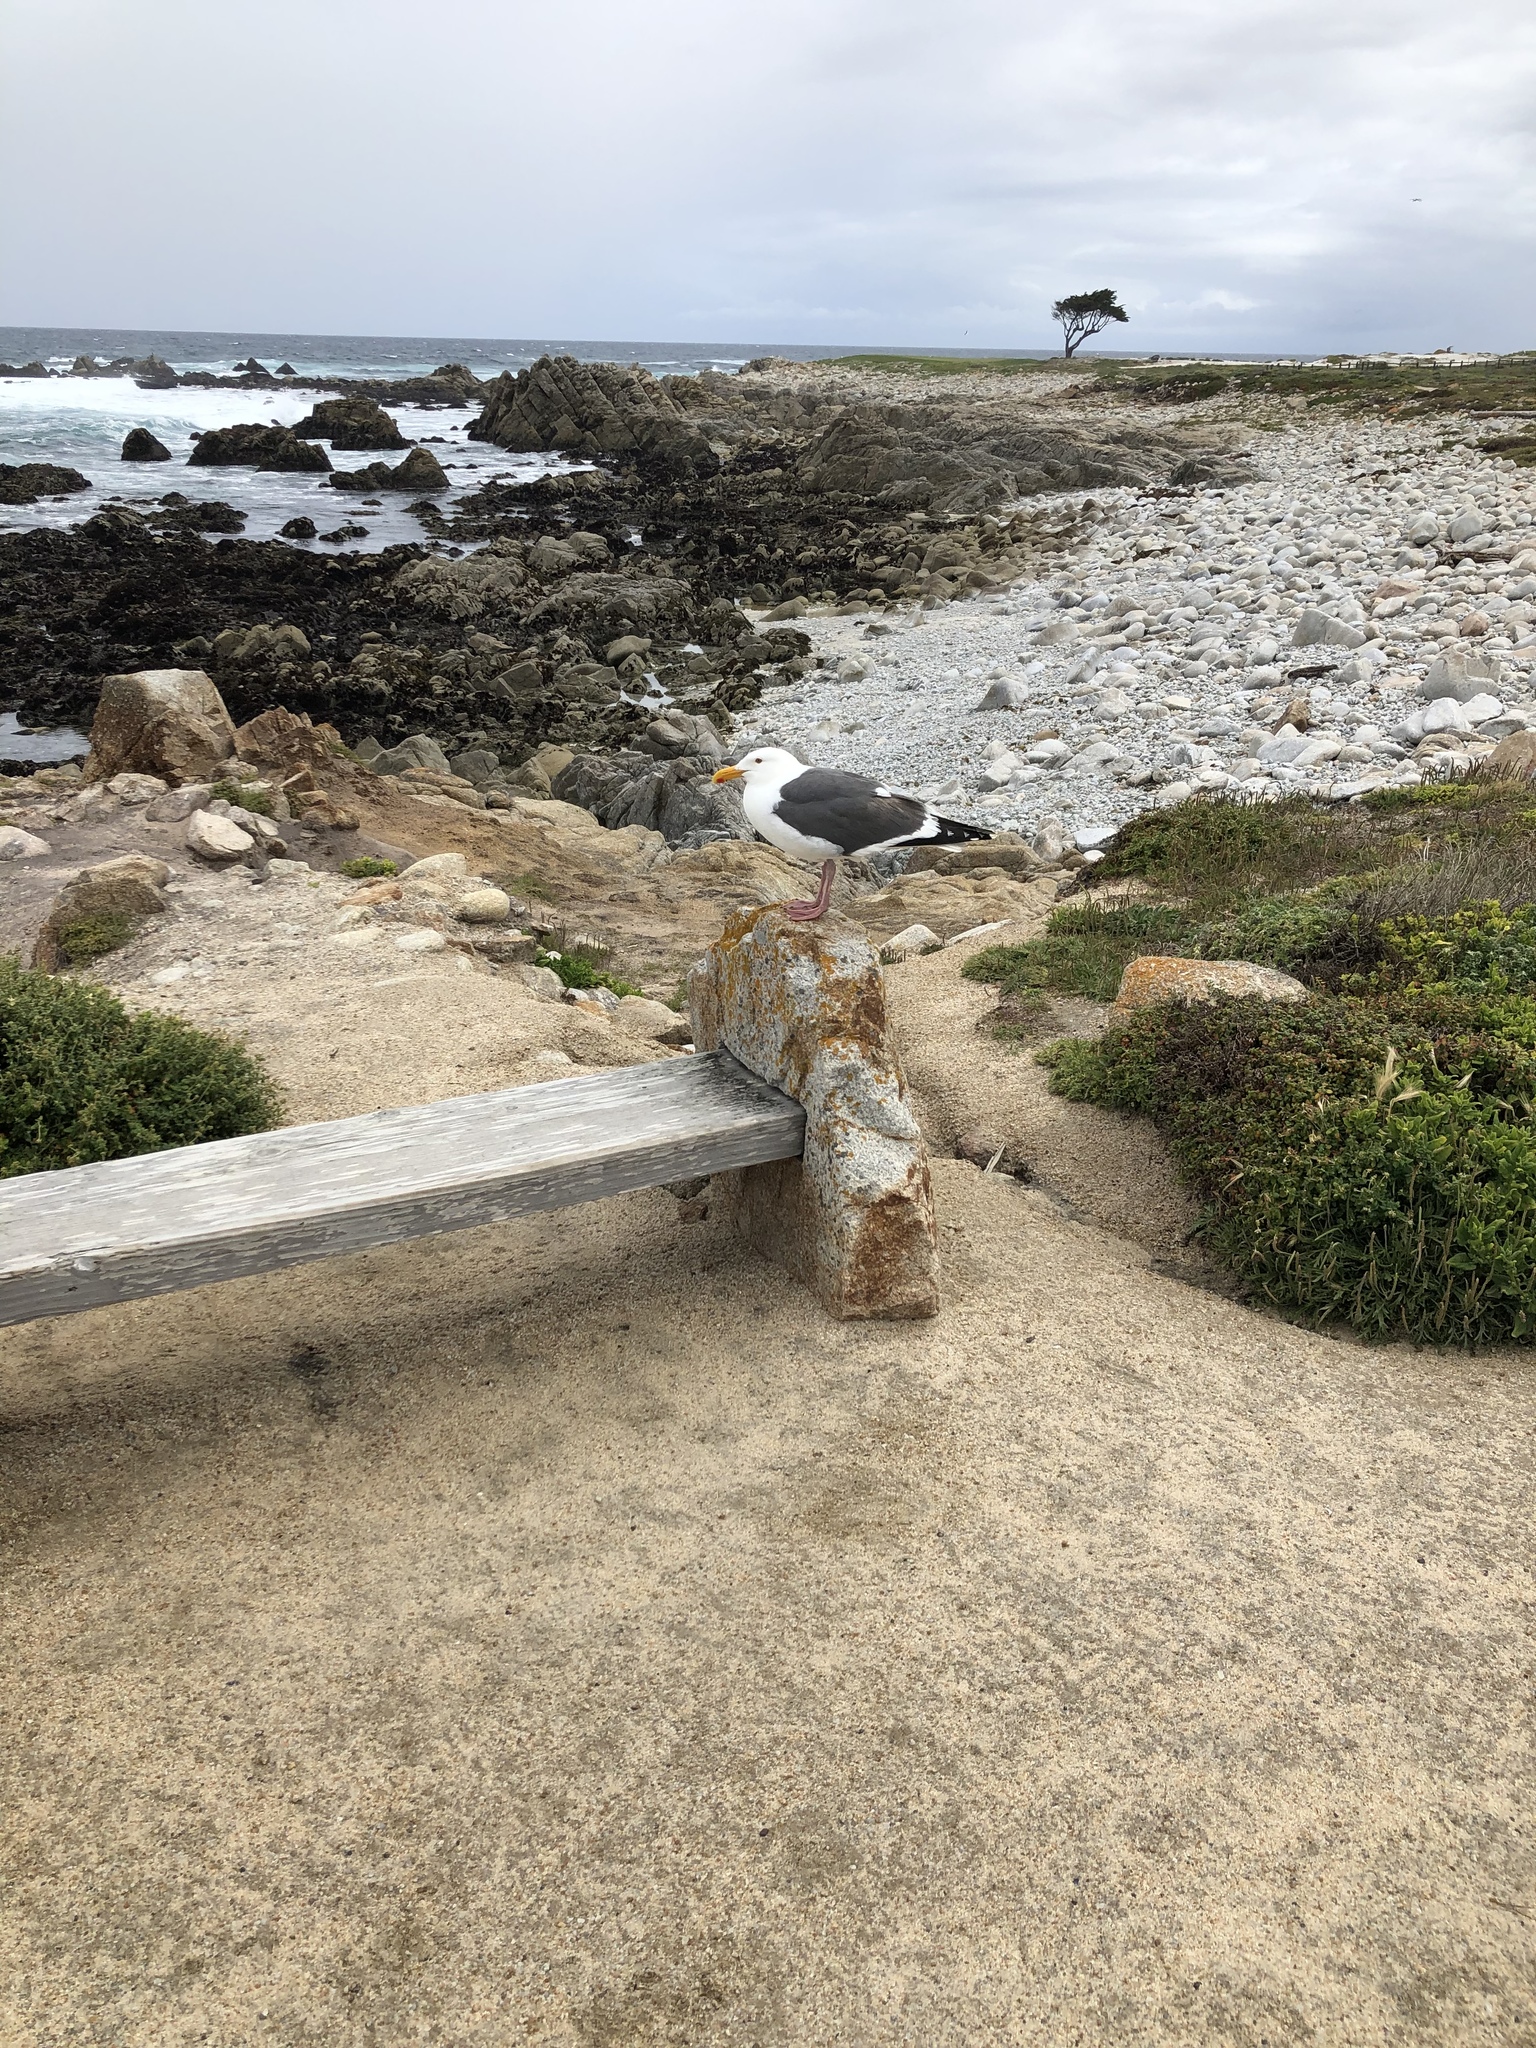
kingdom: Animalia
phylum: Chordata
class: Aves
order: Charadriiformes
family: Laridae
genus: Larus
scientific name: Larus occidentalis
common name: Western gull
